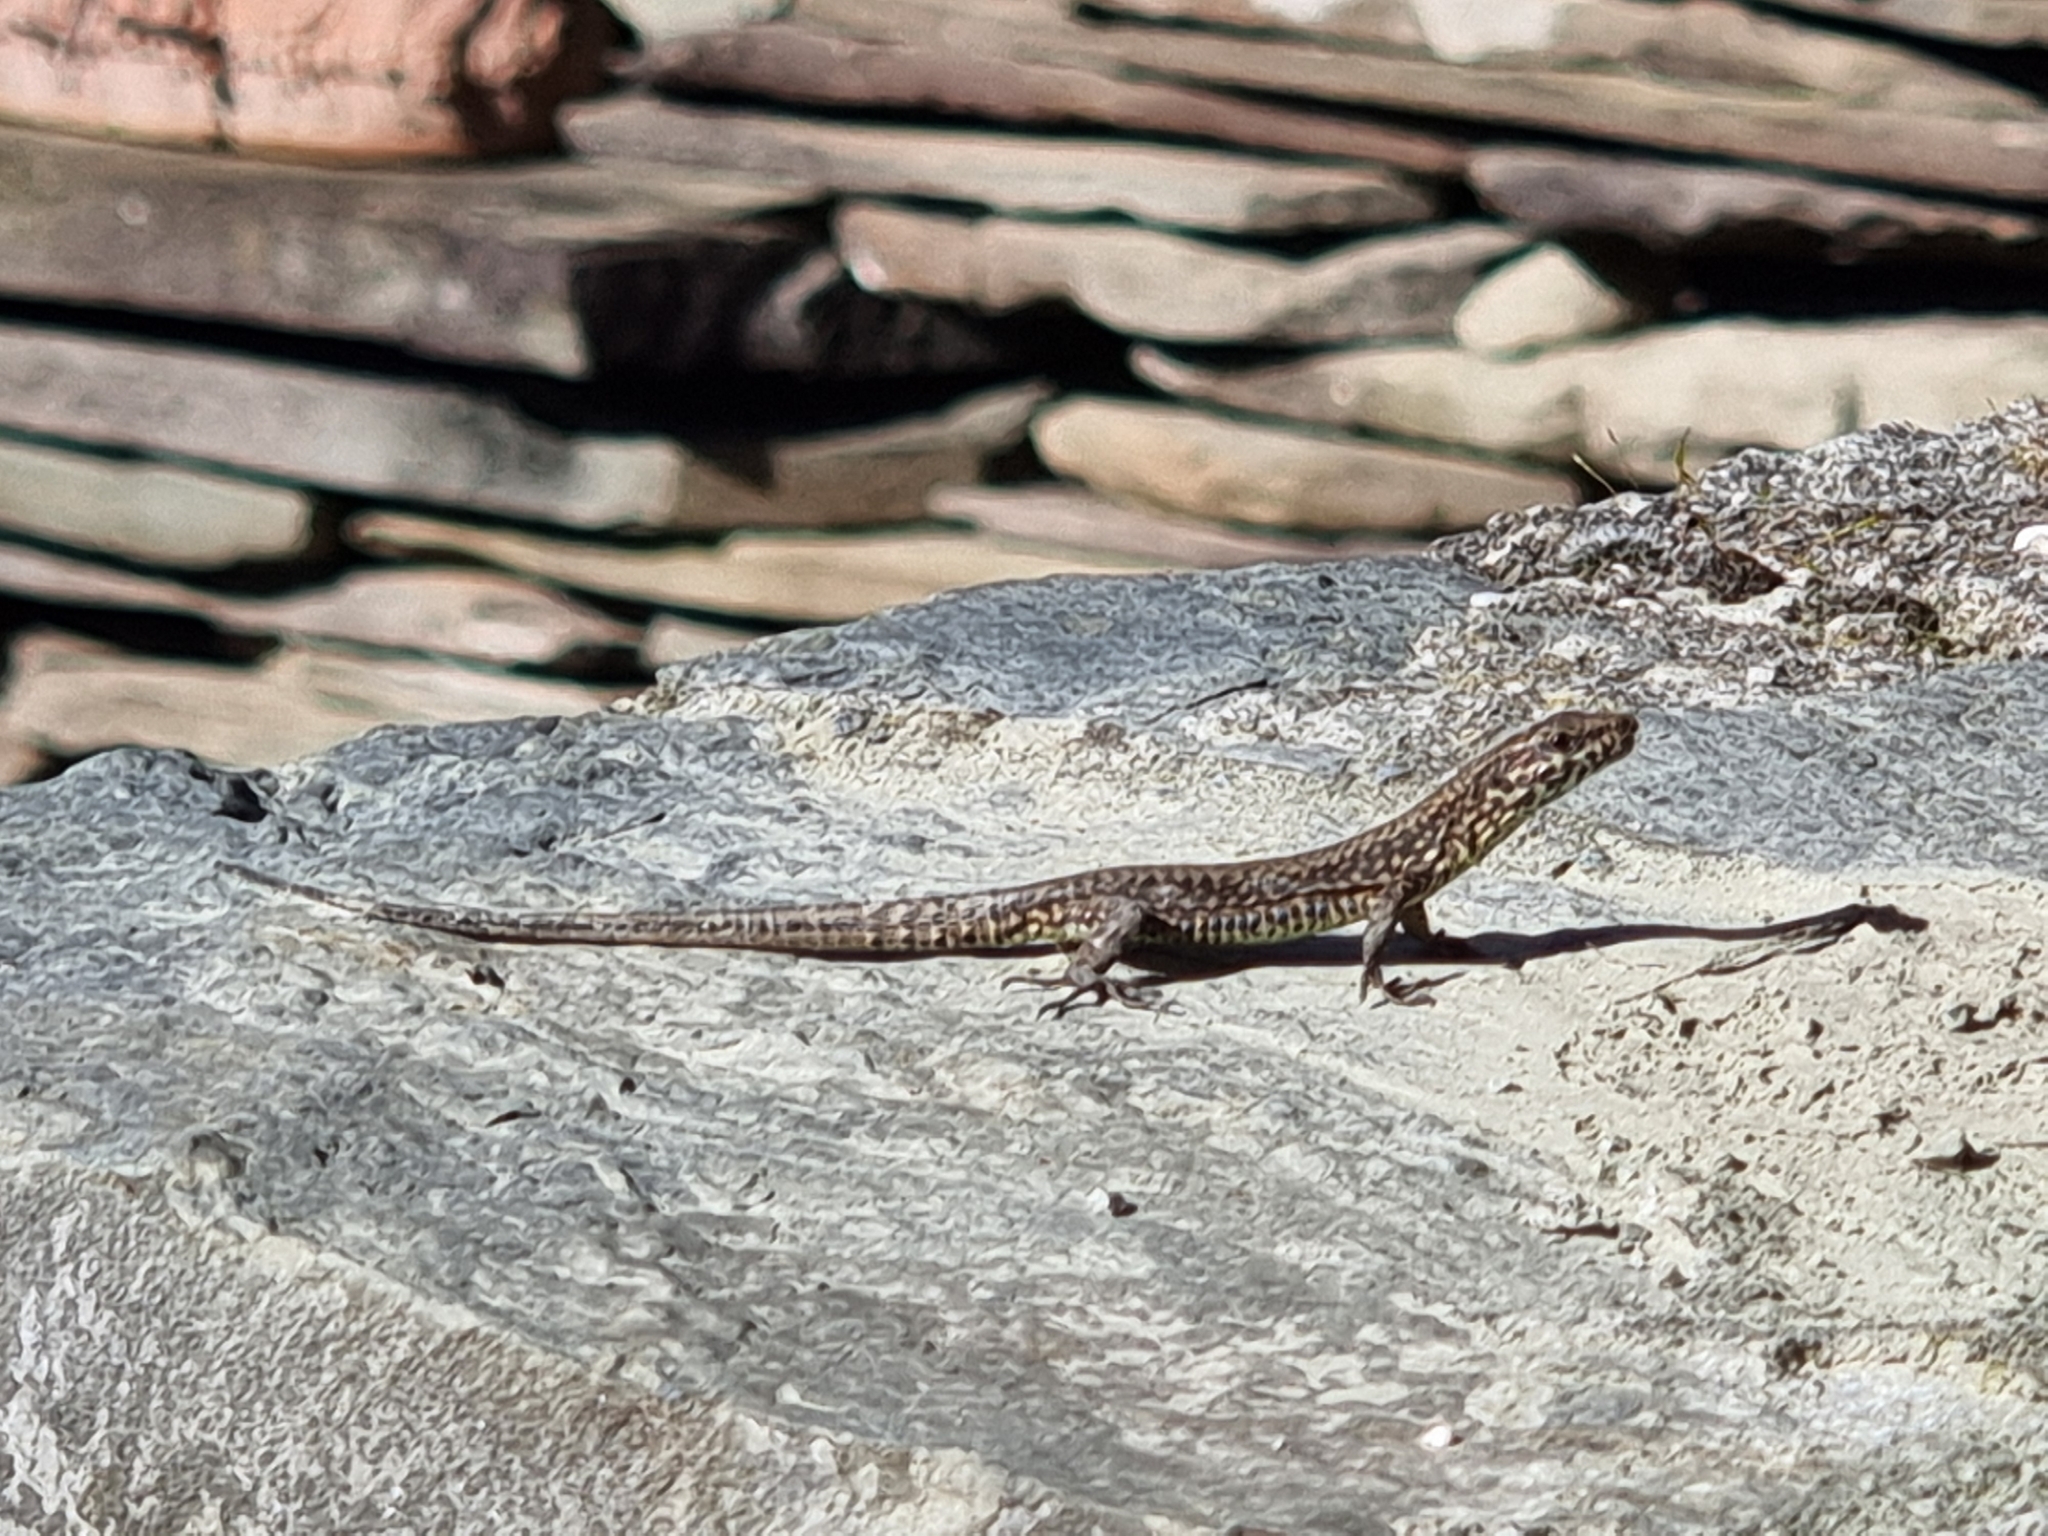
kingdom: Animalia
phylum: Chordata
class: Squamata
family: Lacertidae
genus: Podarcis
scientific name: Podarcis muralis
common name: Common wall lizard
